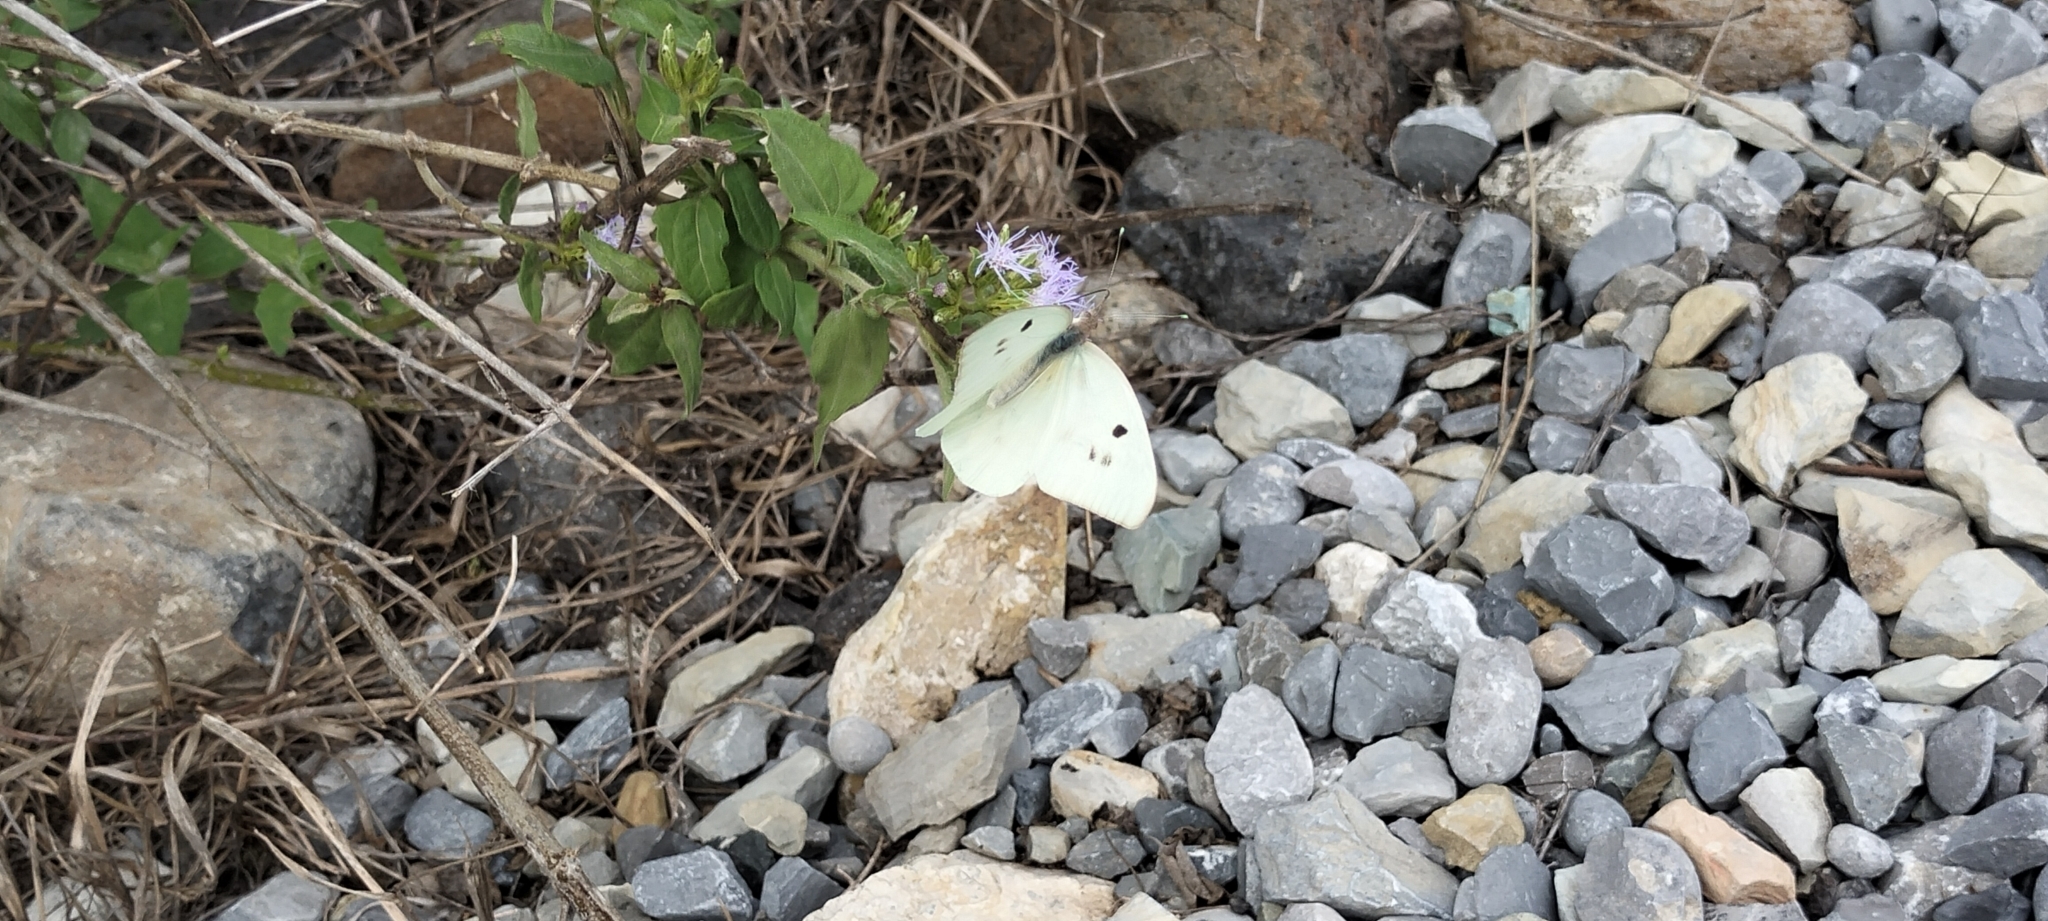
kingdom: Animalia
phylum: Arthropoda
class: Insecta
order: Lepidoptera
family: Pieridae
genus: Ganyra
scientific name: Ganyra josephina
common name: Giant white
